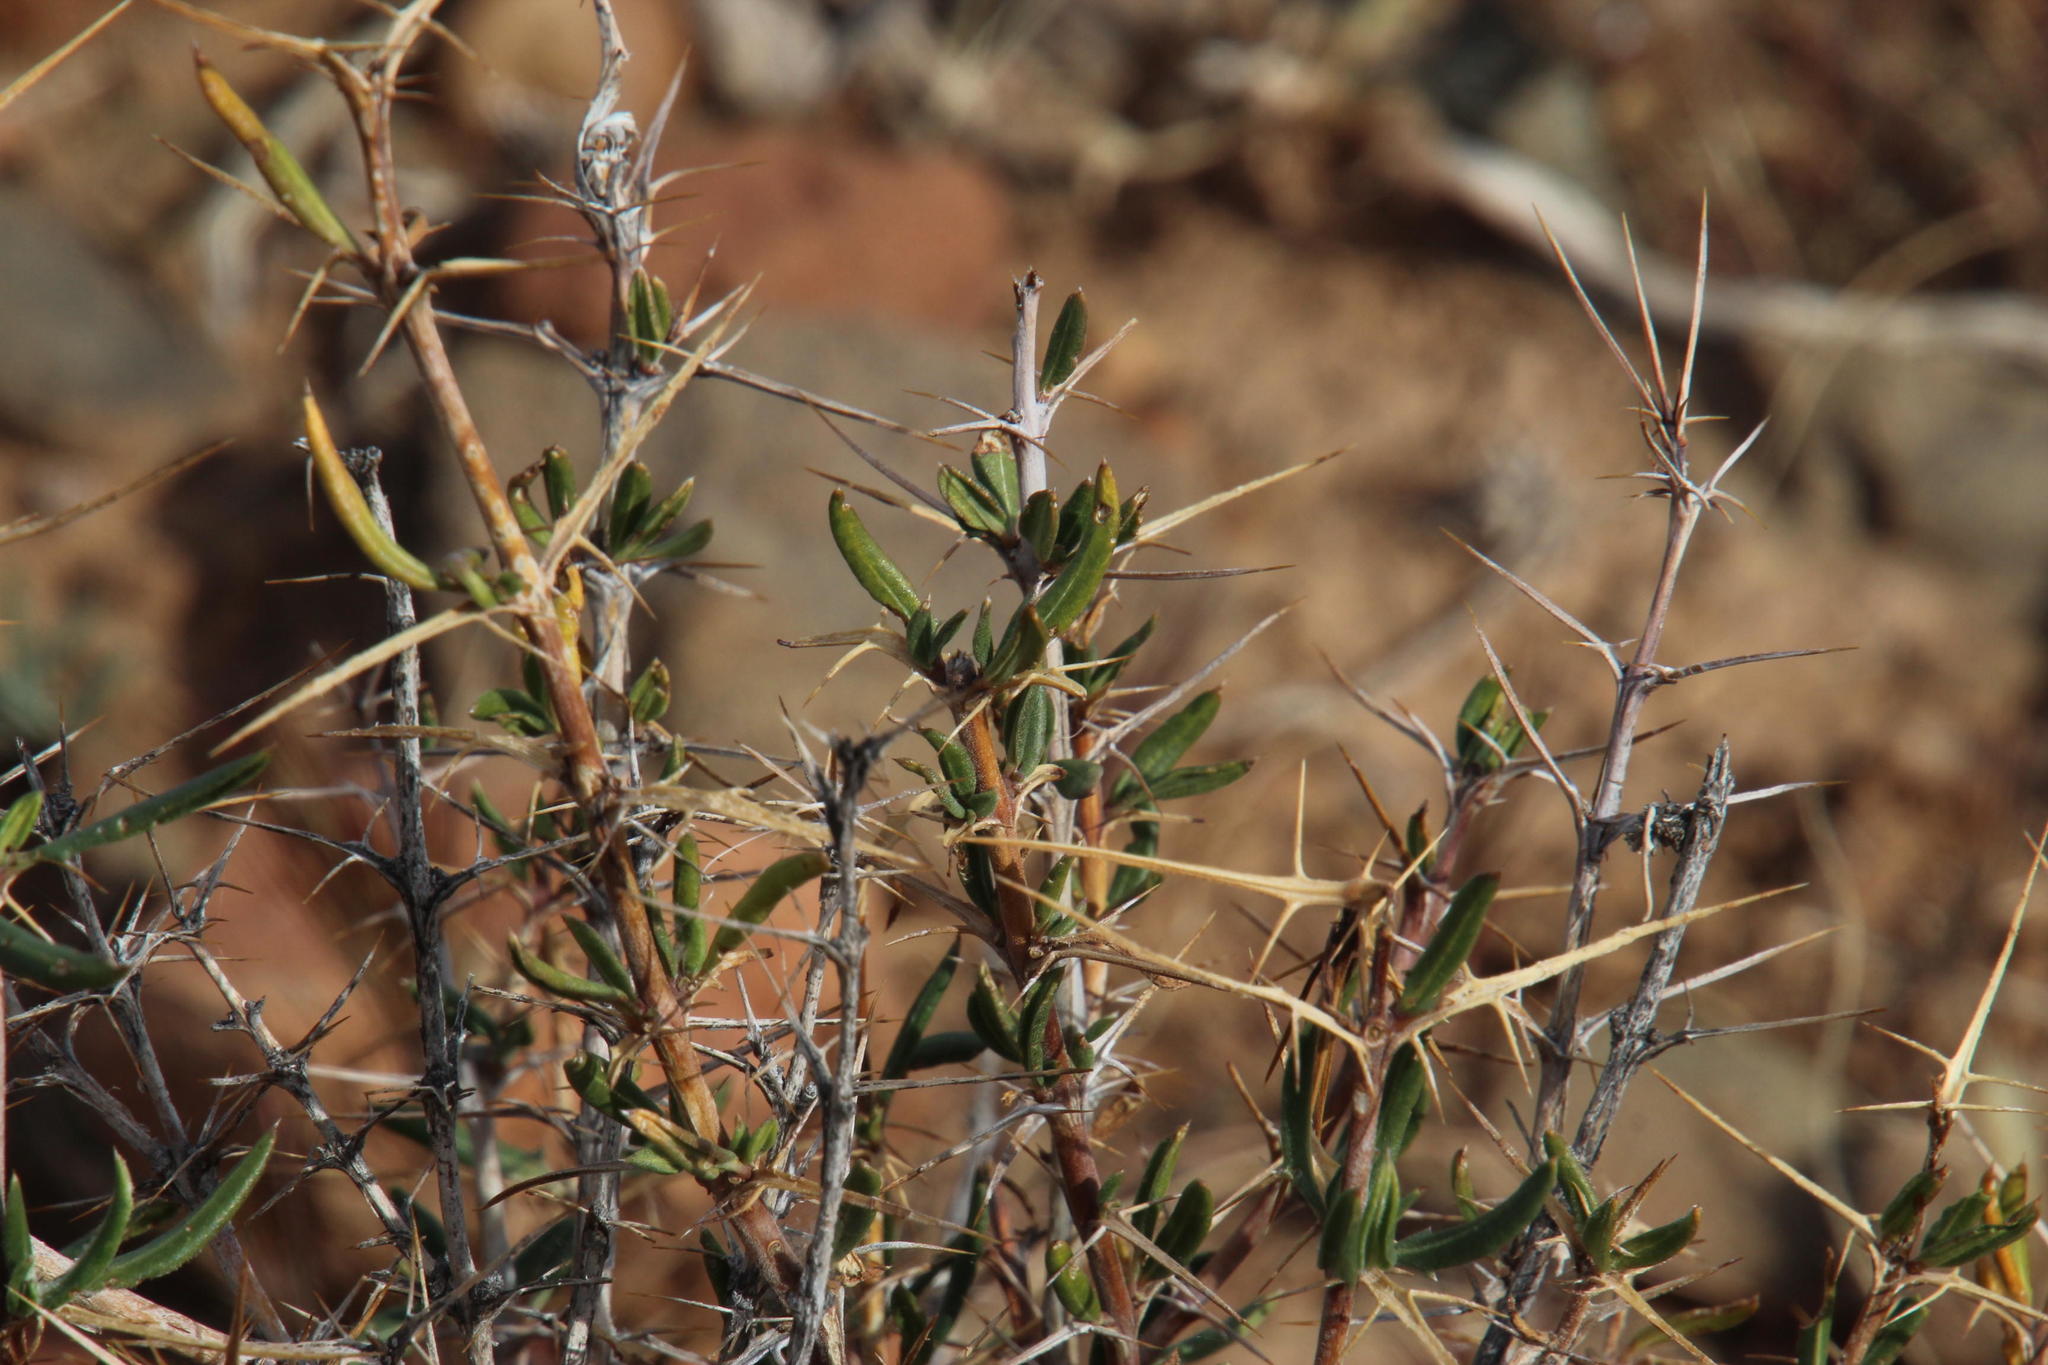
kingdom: Plantae
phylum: Tracheophyta
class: Magnoliopsida
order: Lamiales
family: Acanthaceae
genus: Blepharis
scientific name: Blepharis capensis
